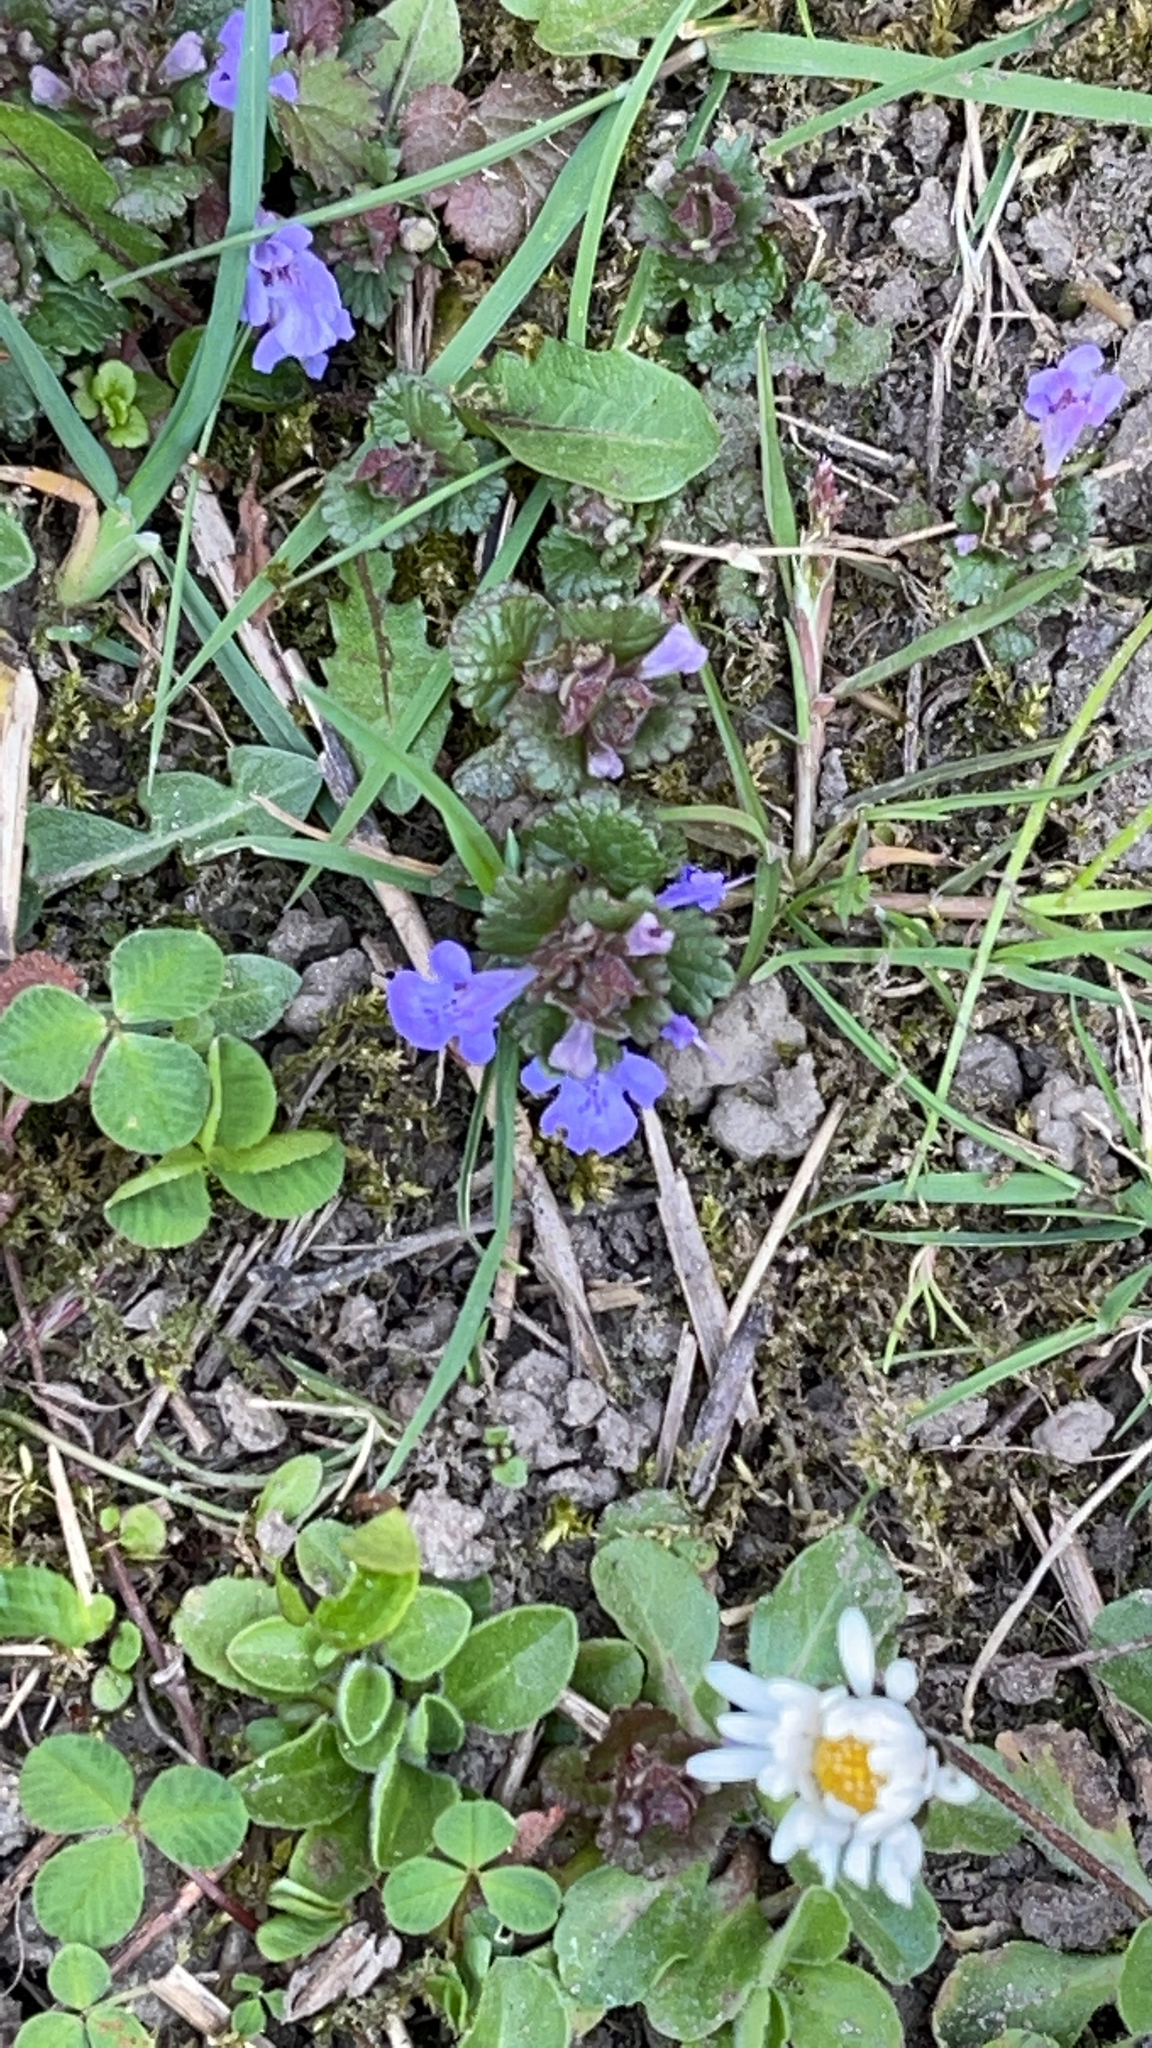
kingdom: Plantae
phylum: Tracheophyta
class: Magnoliopsida
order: Lamiales
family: Lamiaceae
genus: Glechoma
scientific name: Glechoma hederacea
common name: Ground ivy
